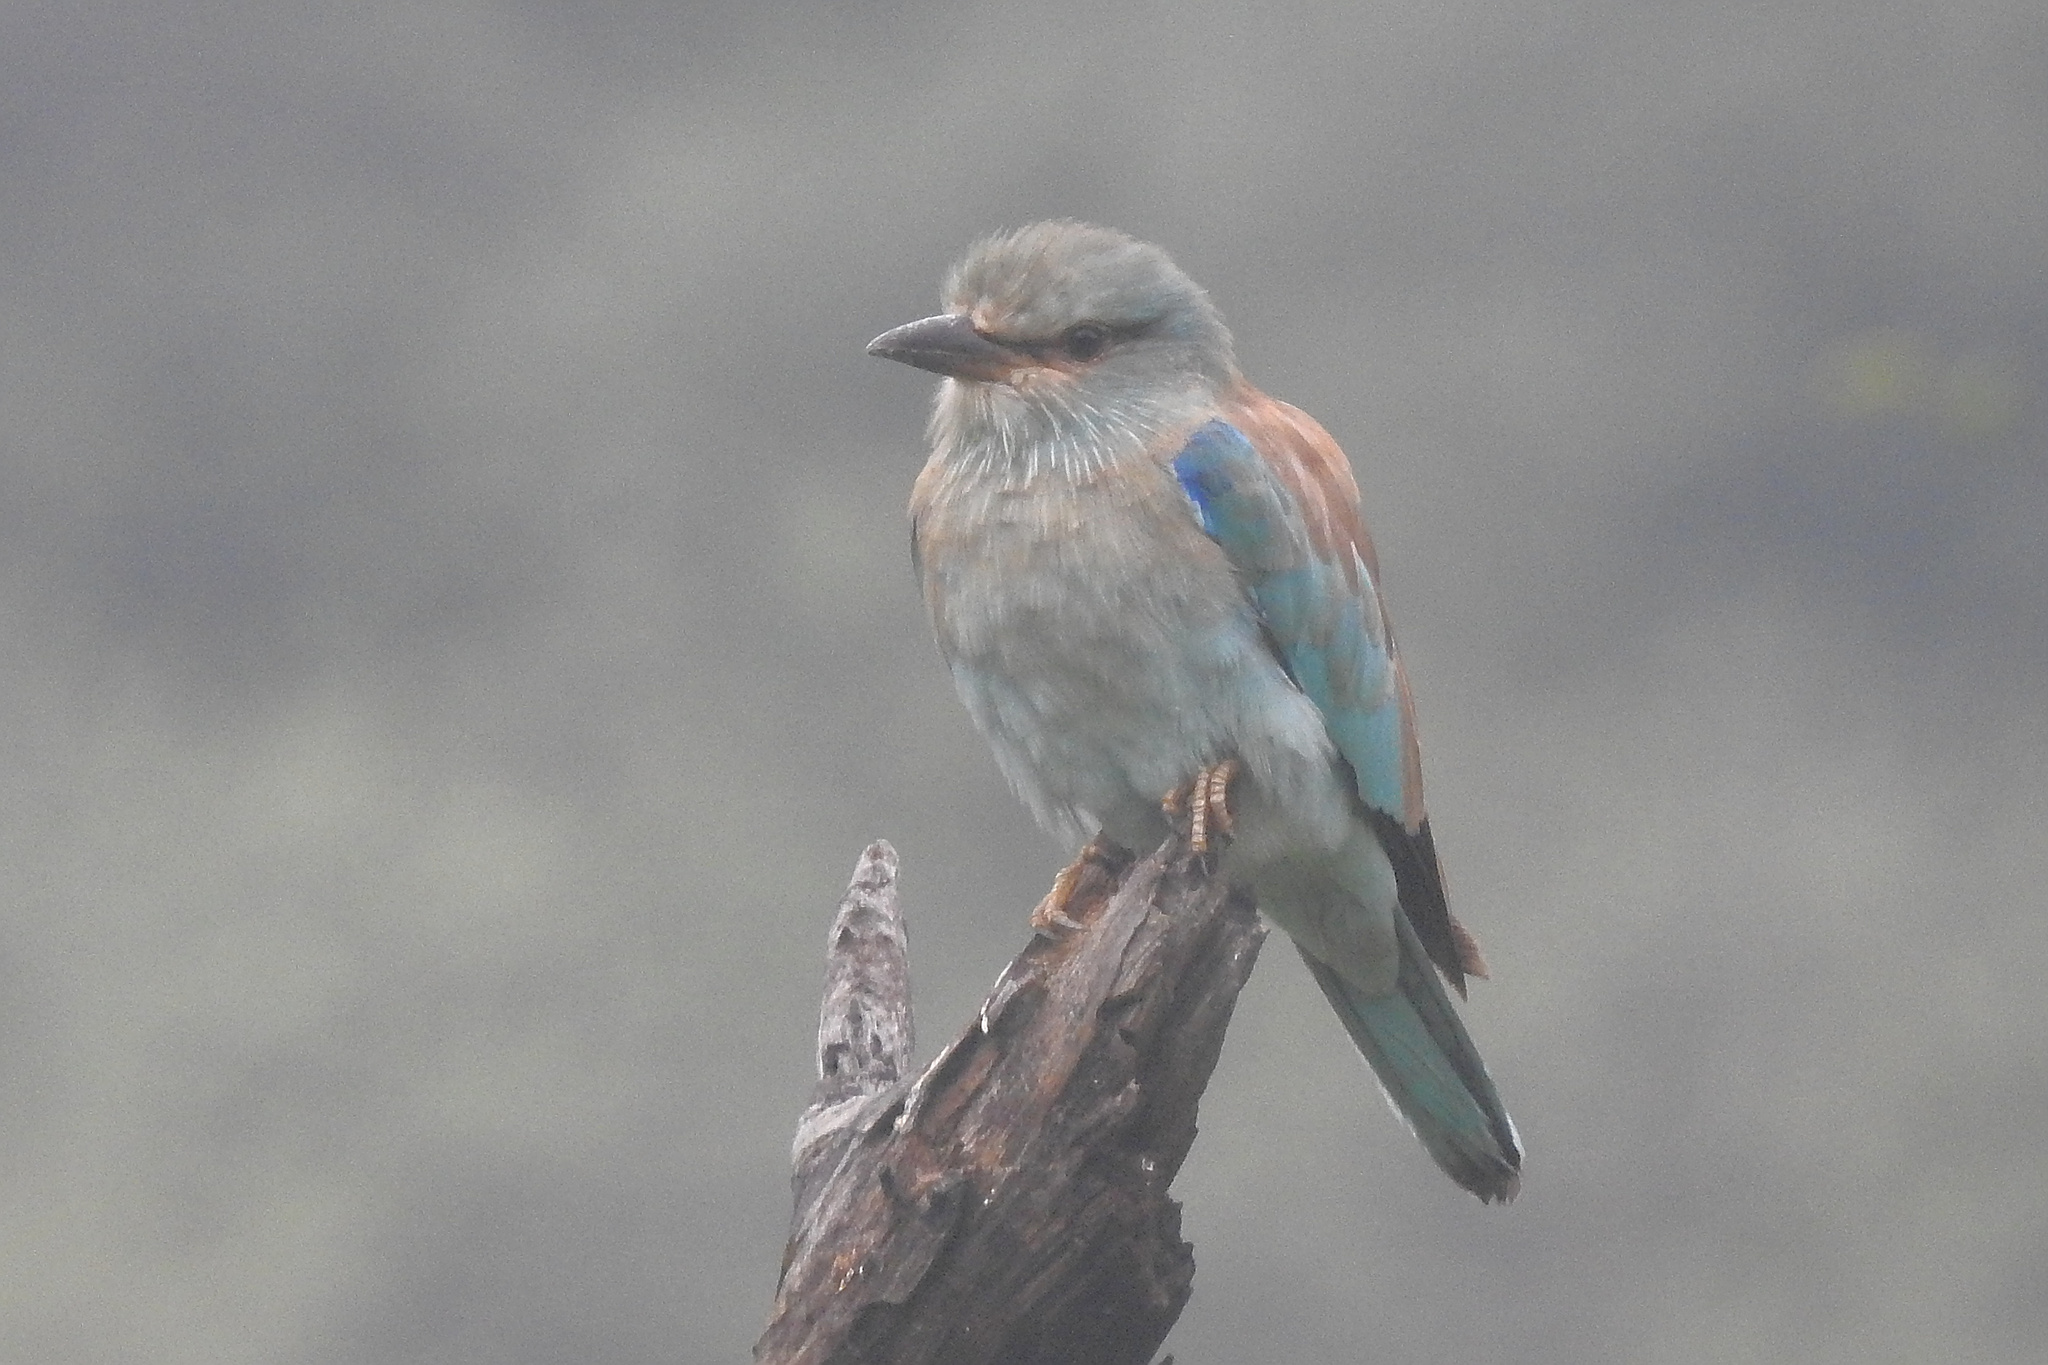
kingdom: Animalia
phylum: Chordata
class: Aves
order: Coraciiformes
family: Coraciidae
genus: Coracias
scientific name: Coracias garrulus
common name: European roller
